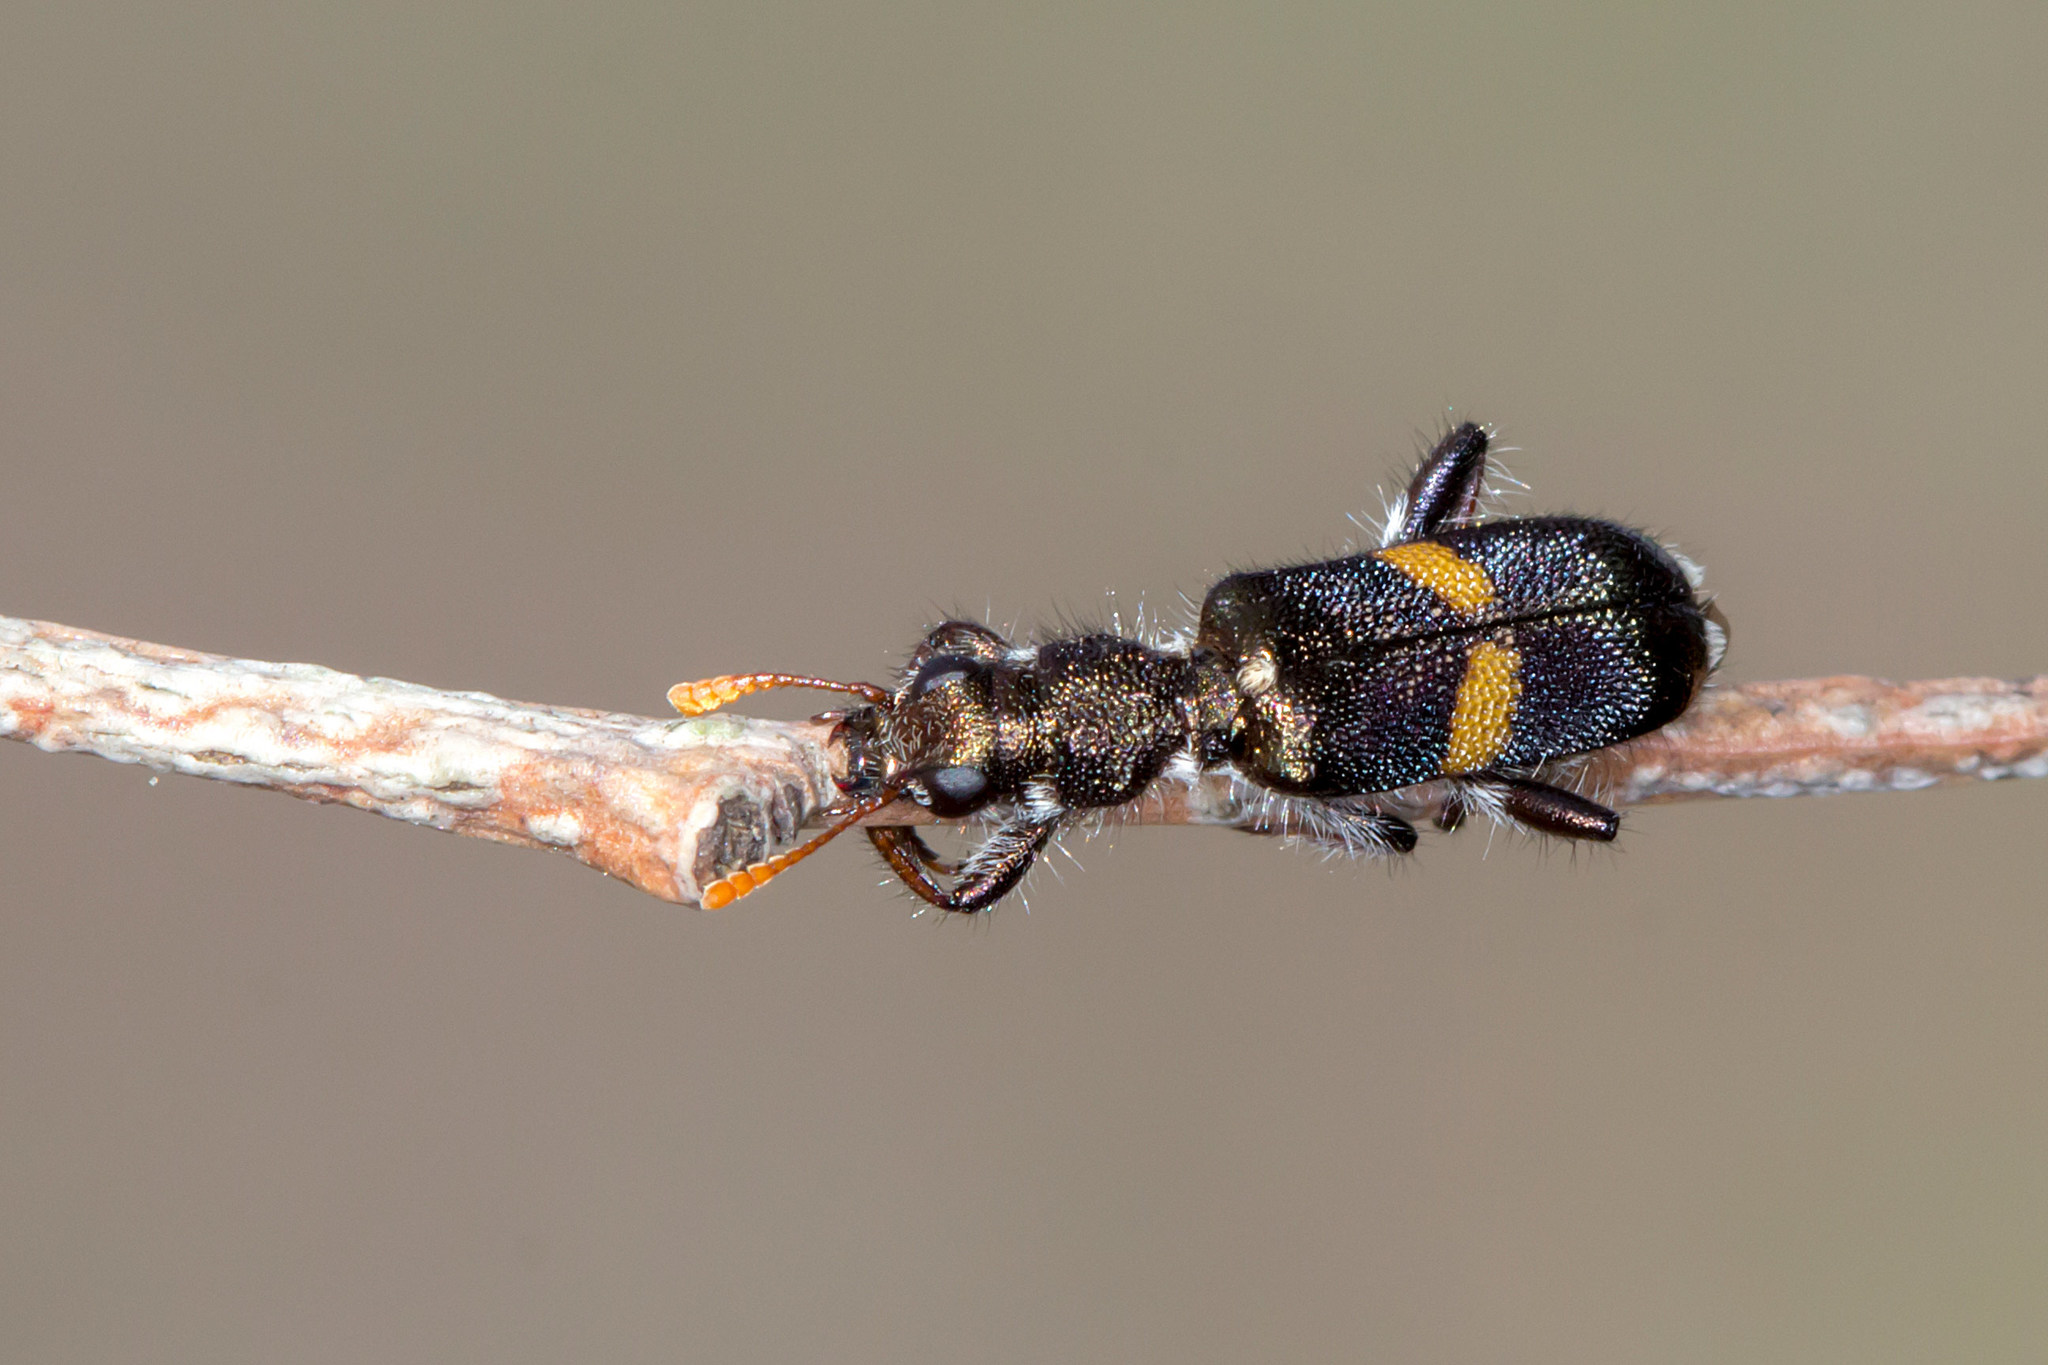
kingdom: Animalia
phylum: Arthropoda
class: Insecta
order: Coleoptera
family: Cleridae
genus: Eleale
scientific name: Eleale
